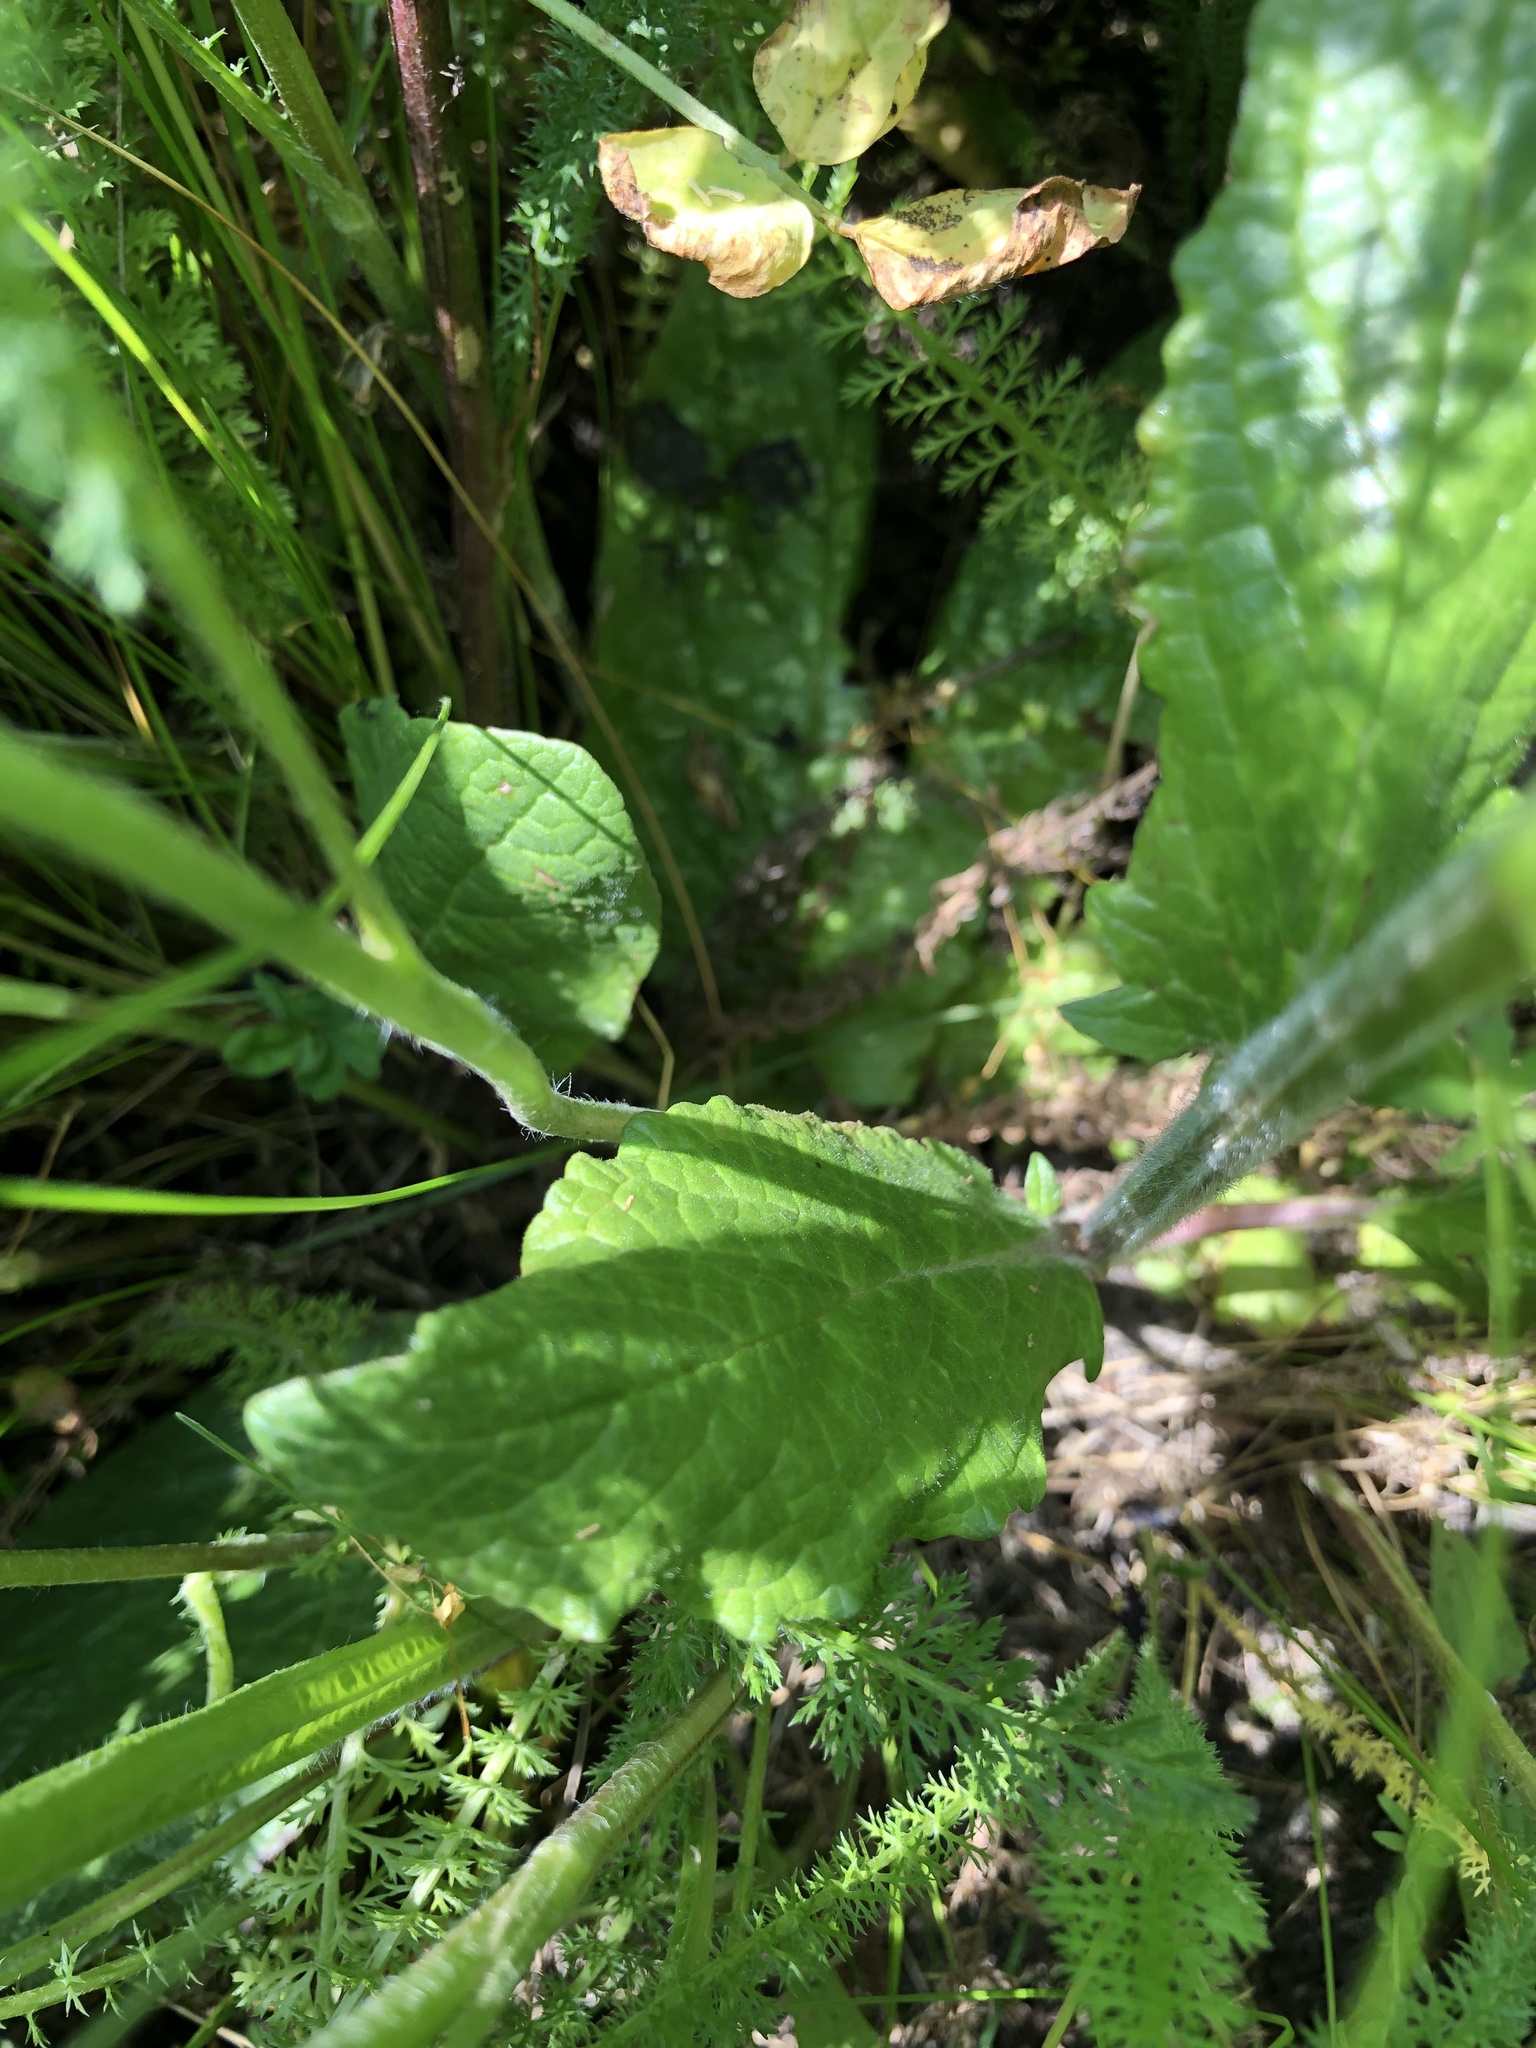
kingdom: Plantae
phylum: Tracheophyta
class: Magnoliopsida
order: Lamiales
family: Scrophulariaceae
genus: Verbascum
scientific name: Verbascum phoeniceum
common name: Purple mullein
